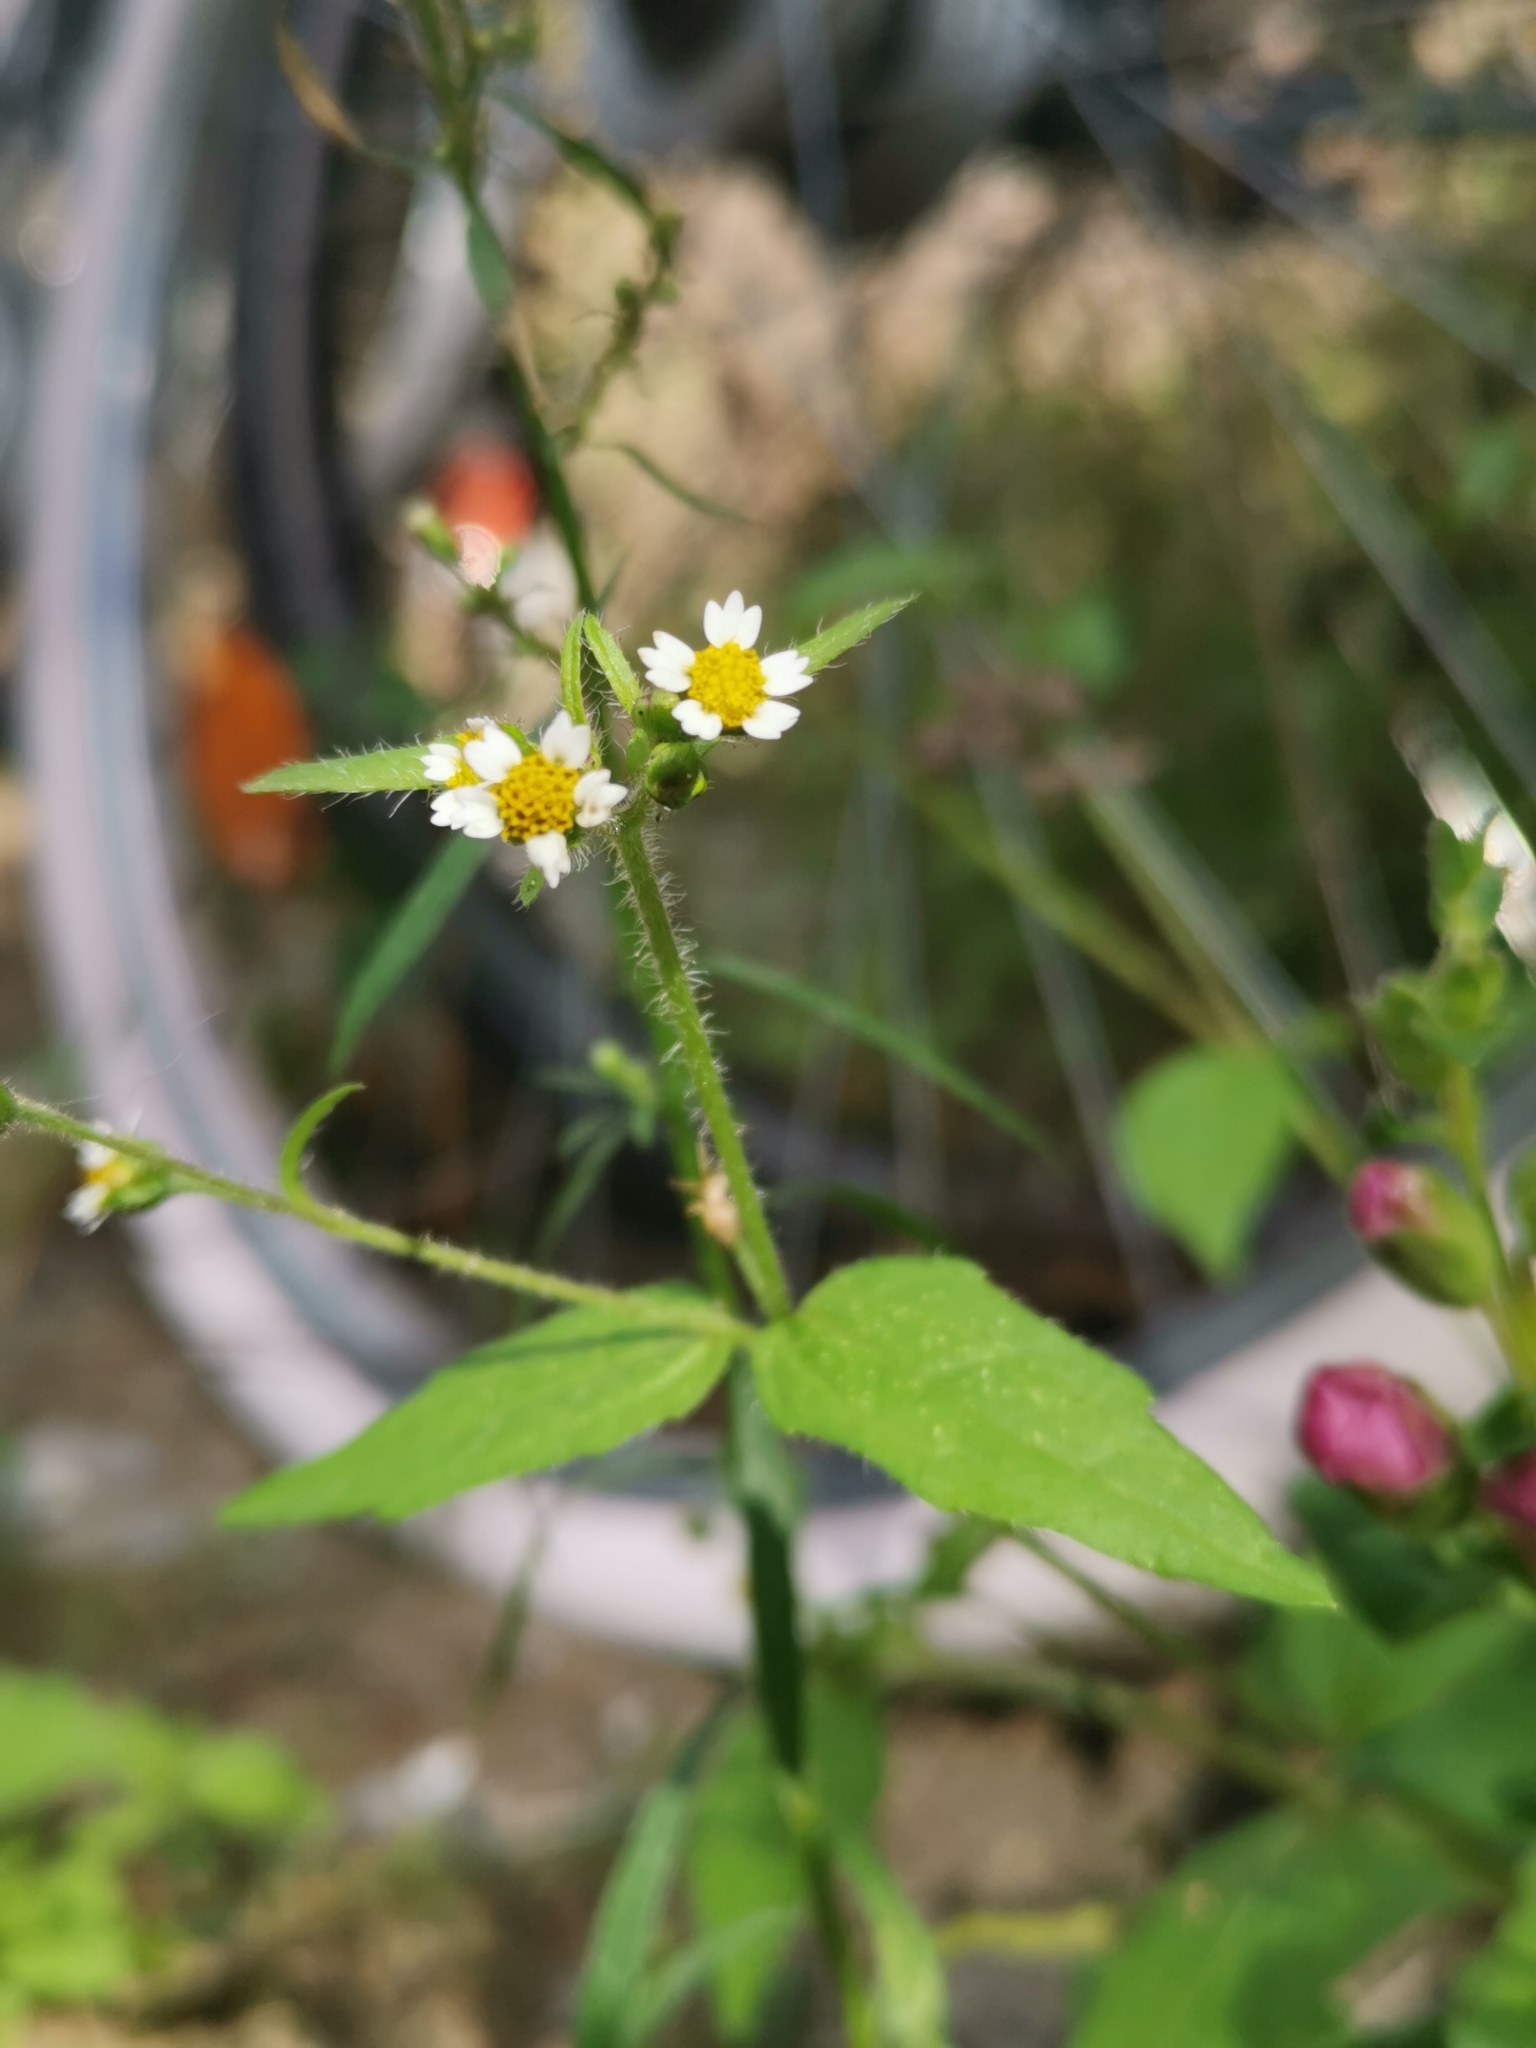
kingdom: Plantae
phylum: Tracheophyta
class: Magnoliopsida
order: Asterales
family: Asteraceae
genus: Galinsoga
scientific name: Galinsoga quadriradiata
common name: Shaggy soldier
